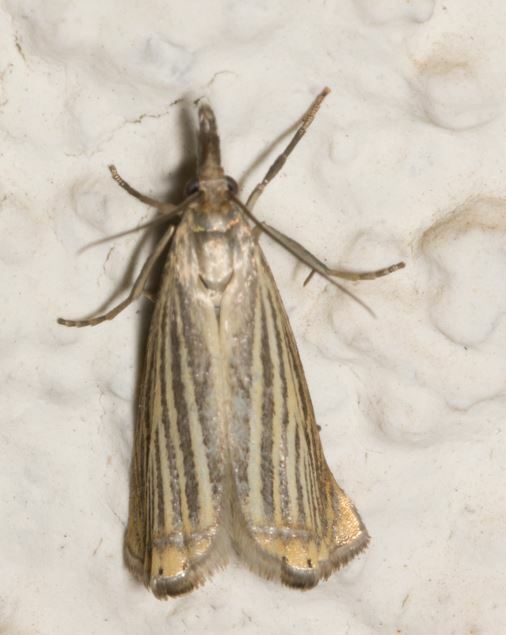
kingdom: Animalia
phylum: Arthropoda
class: Insecta
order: Lepidoptera
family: Crambidae
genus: Chrysoteuchia
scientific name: Chrysoteuchia culmella
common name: Garden grass-veneer
